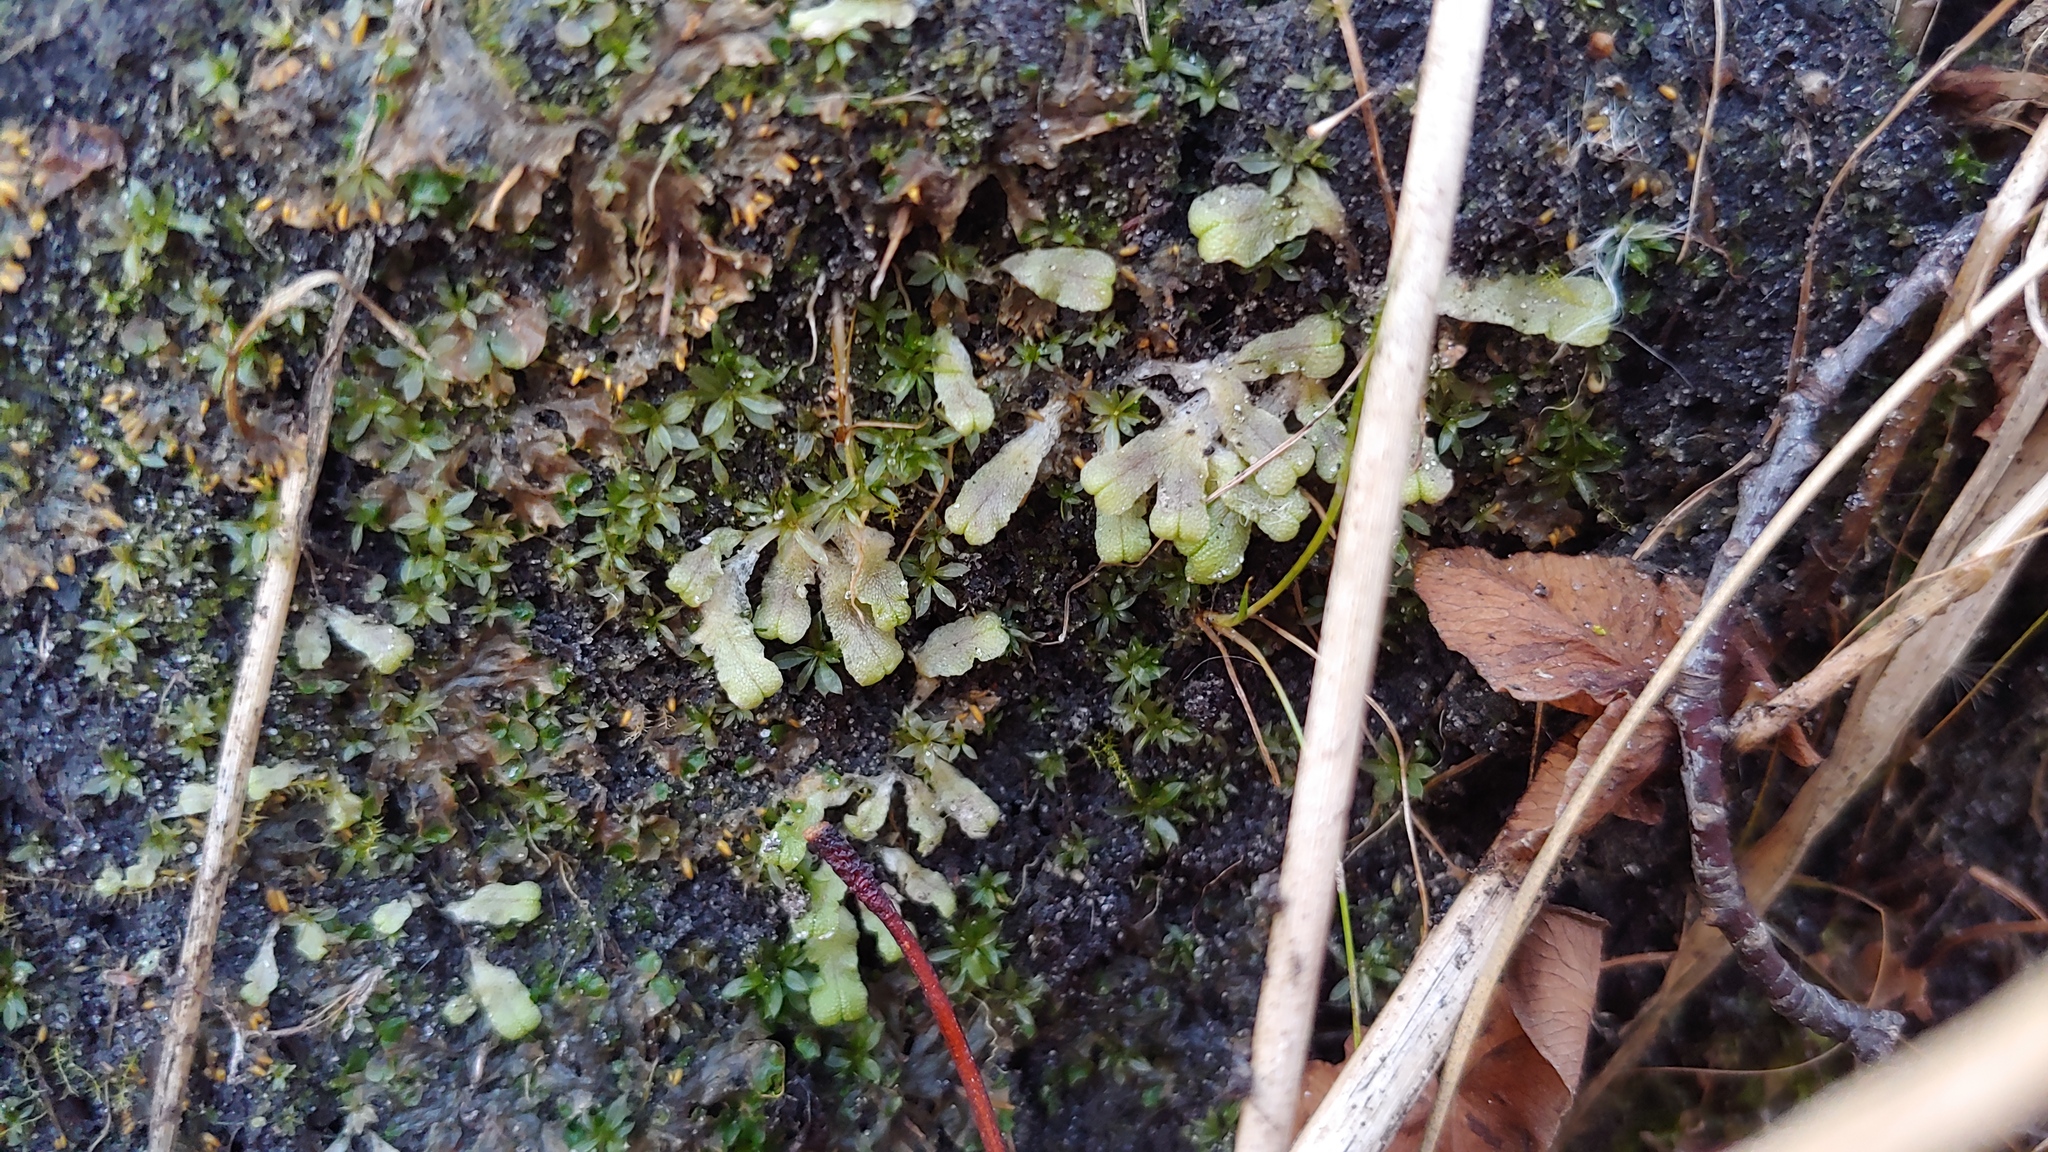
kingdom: Plantae
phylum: Marchantiophyta
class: Marchantiopsida
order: Marchantiales
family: Ricciaceae
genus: Ricciocarpos
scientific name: Ricciocarpos natans
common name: Purple-fringed liverwort
